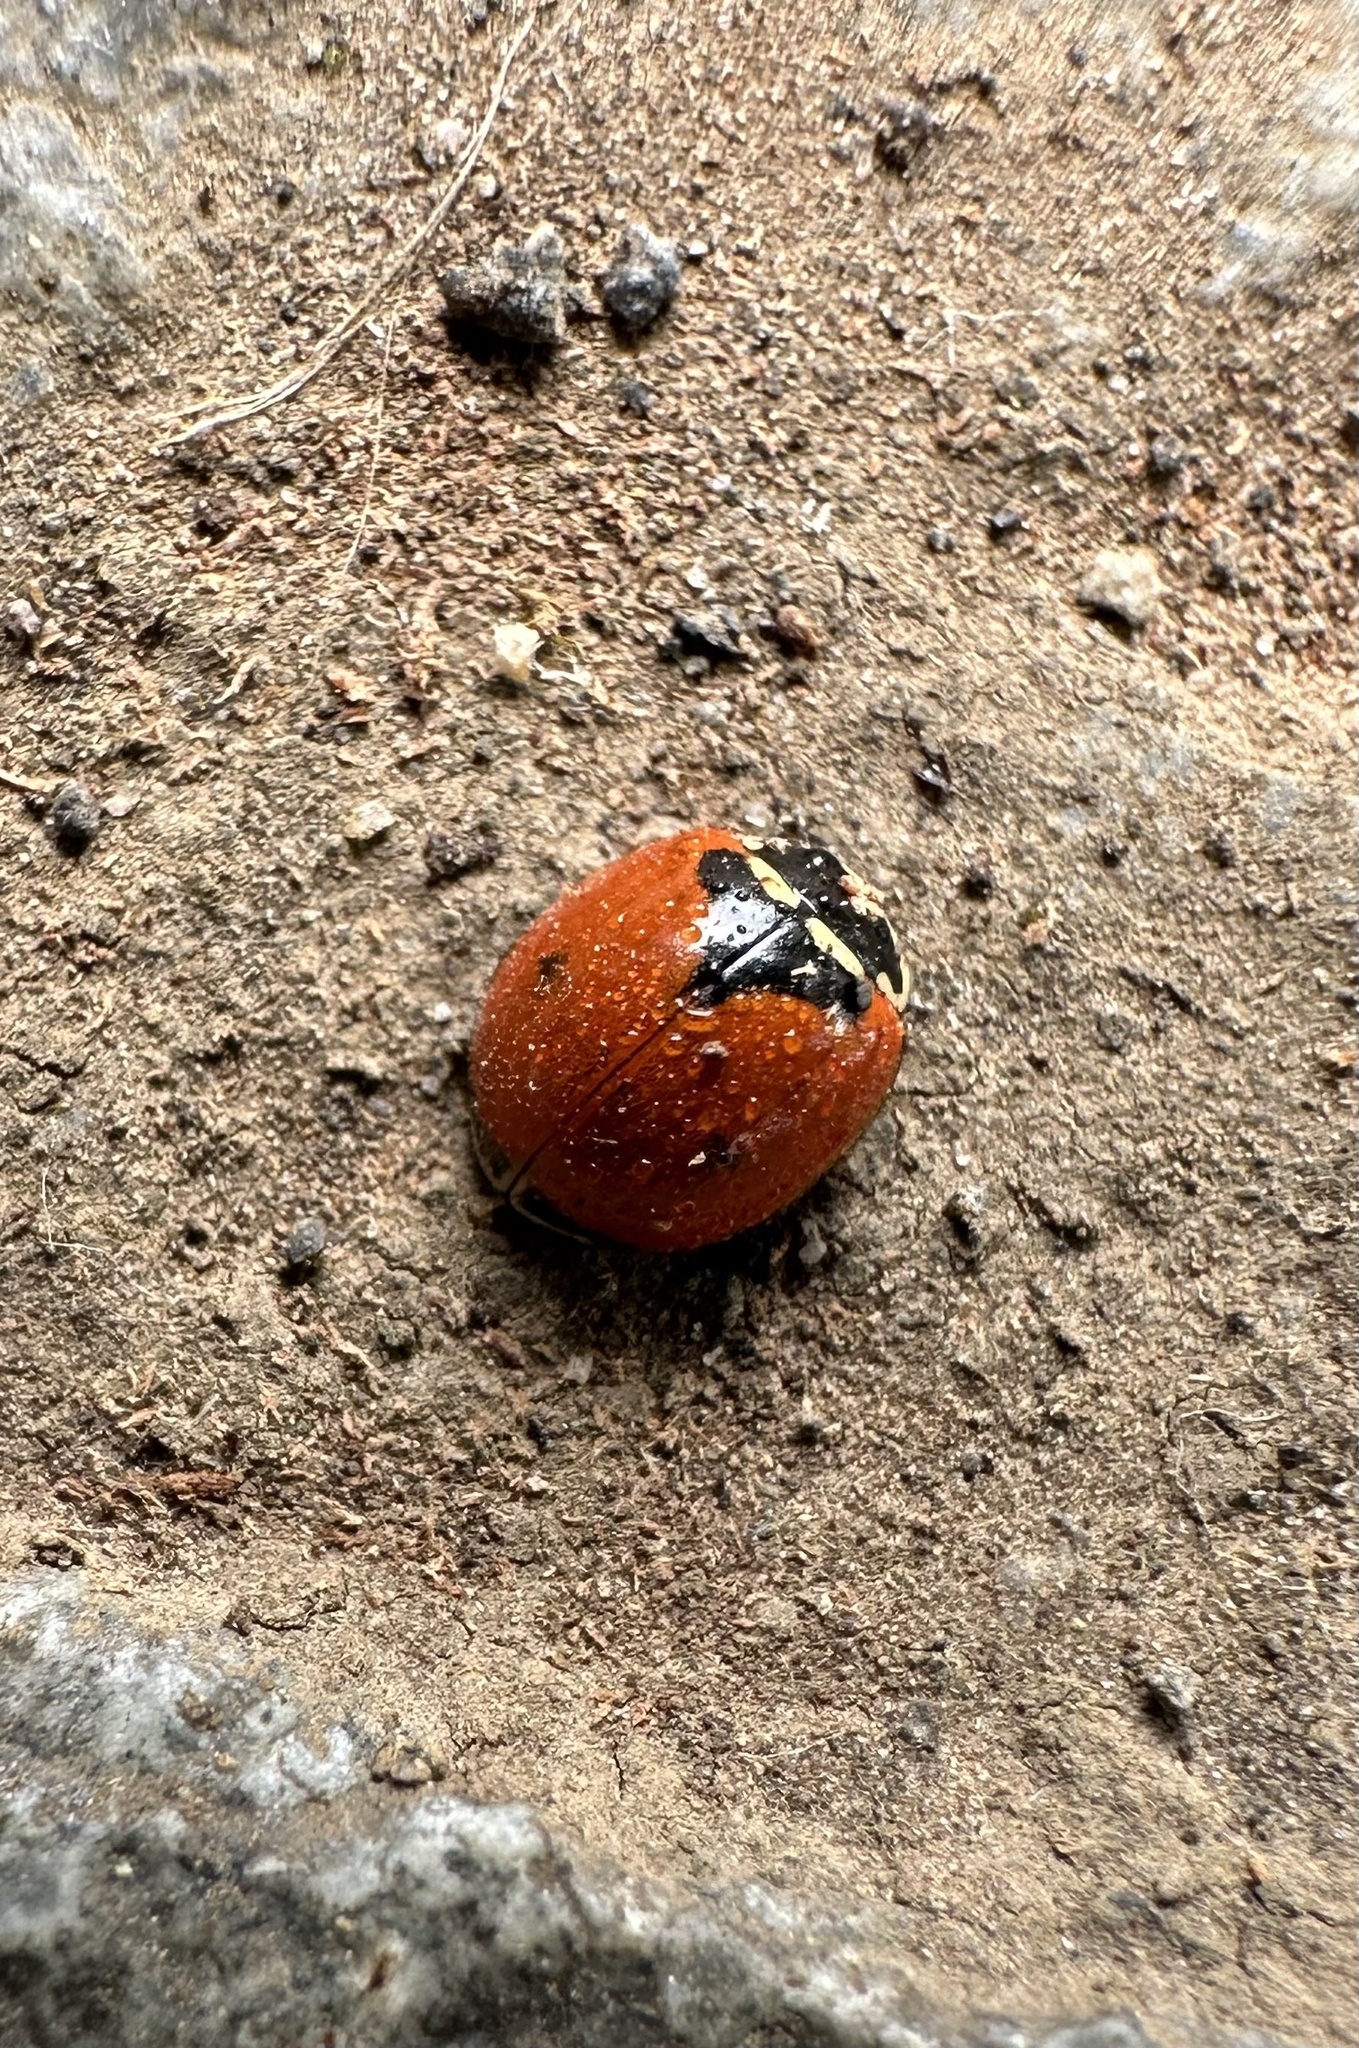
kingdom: Animalia
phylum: Arthropoda
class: Insecta
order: Coleoptera
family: Coccinellidae
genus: Adalia
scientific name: Adalia deficiens
